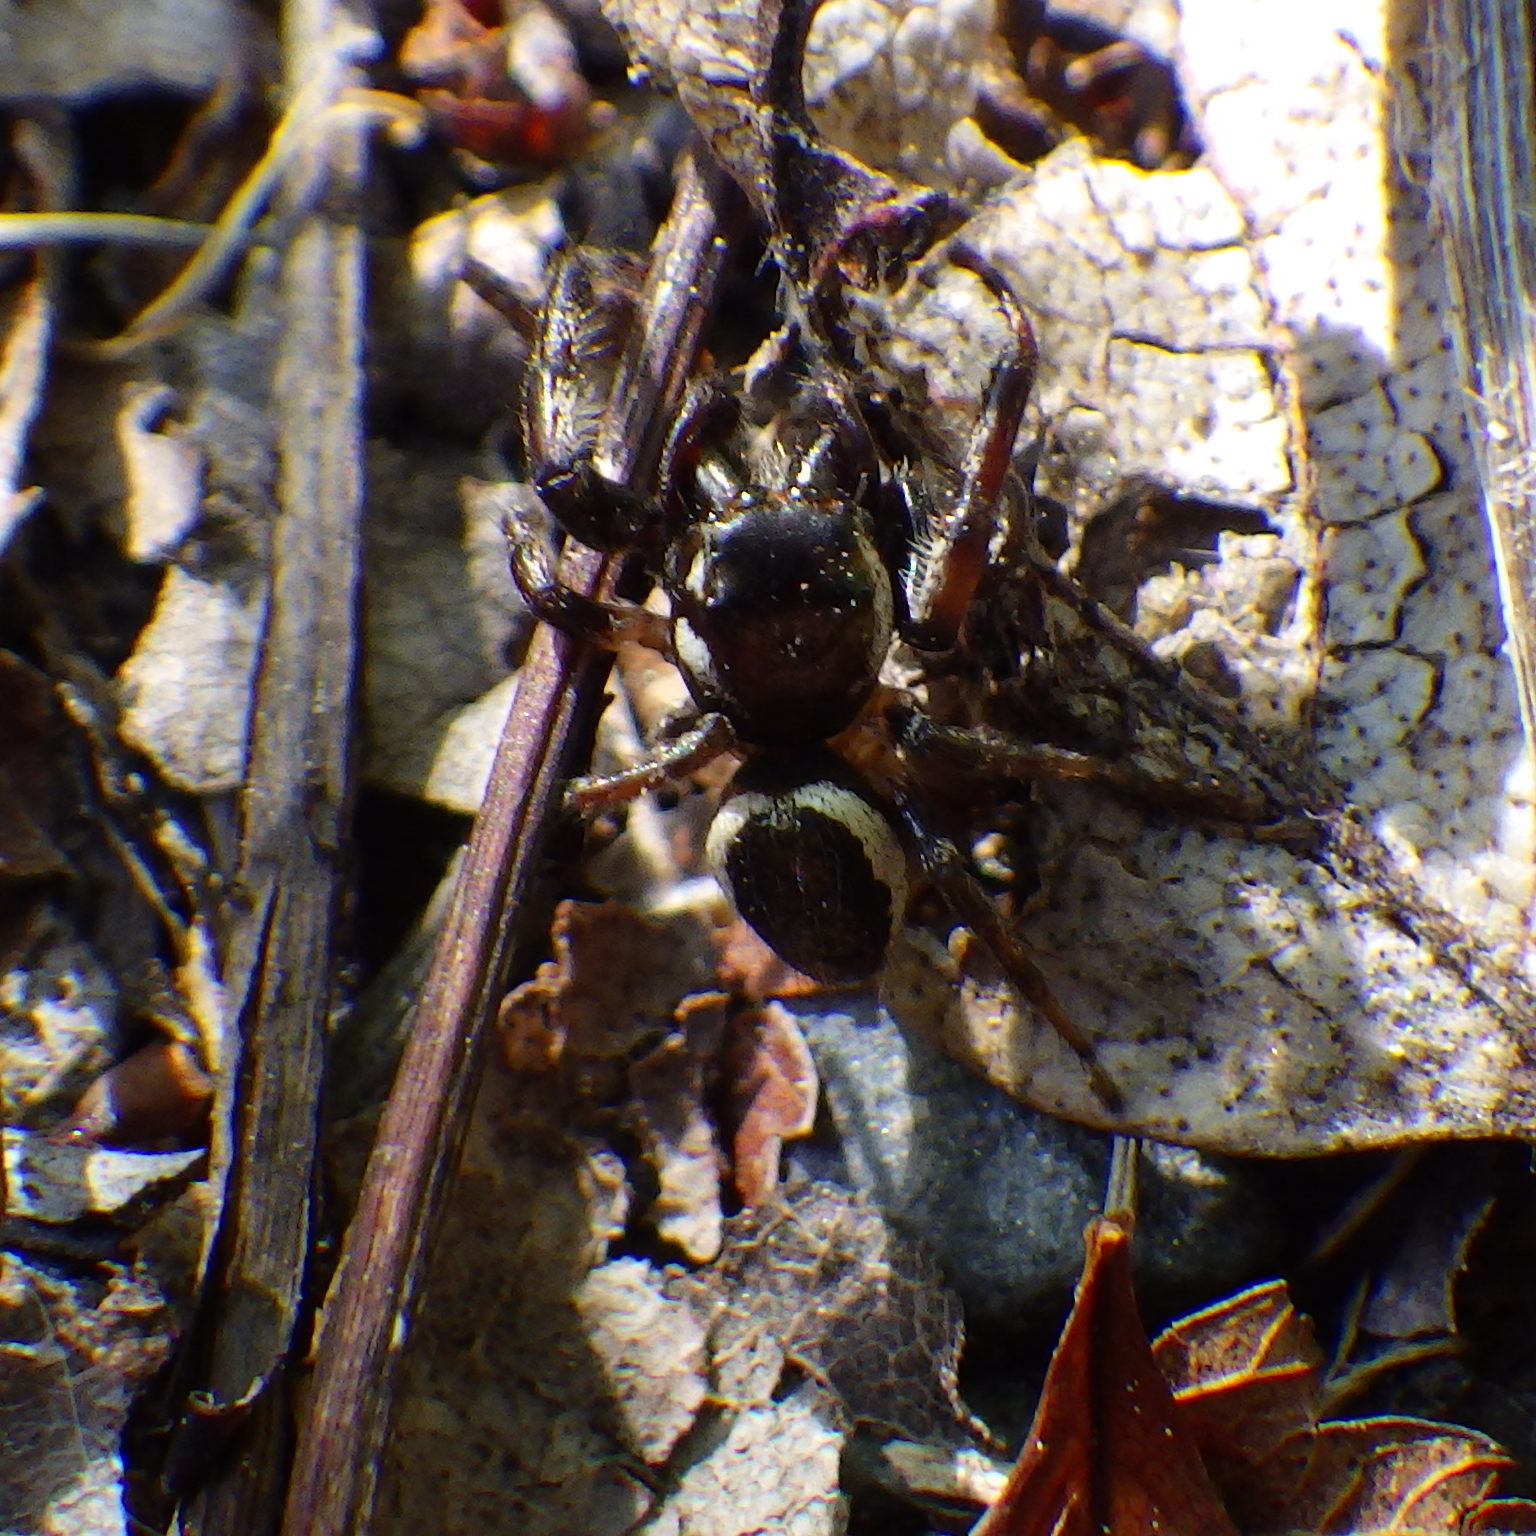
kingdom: Animalia
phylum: Arthropoda
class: Arachnida
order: Araneae
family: Salticidae
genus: Eris
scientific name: Eris militaris
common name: Bronze jumper
